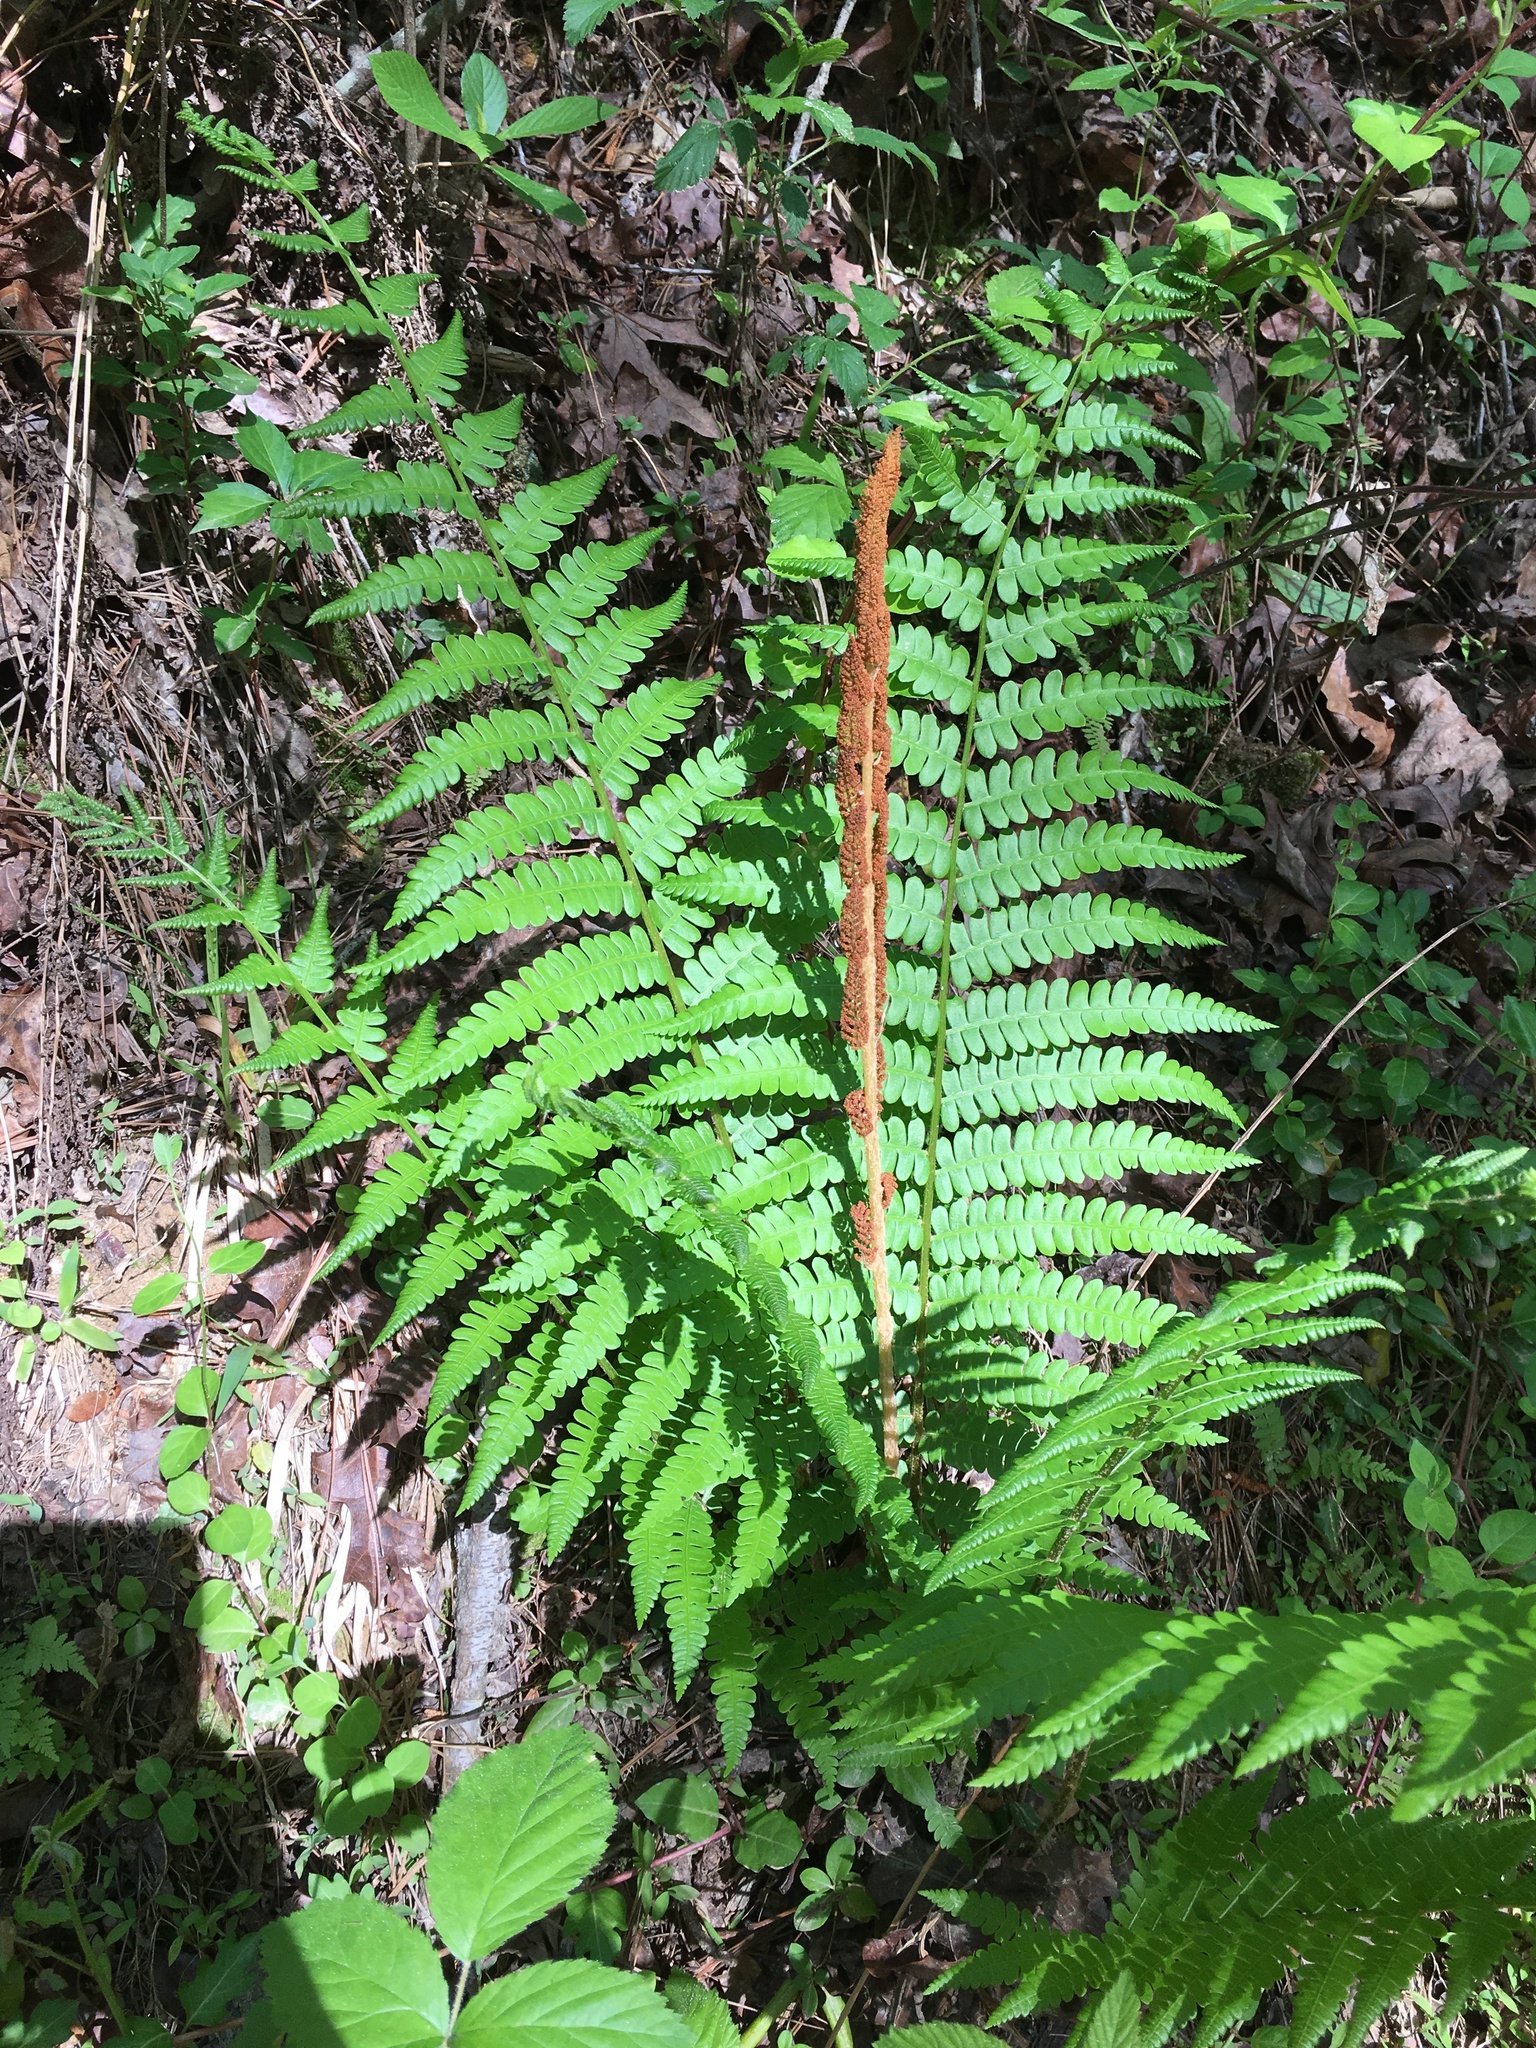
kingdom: Plantae
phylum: Tracheophyta
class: Polypodiopsida
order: Osmundales
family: Osmundaceae
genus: Osmundastrum
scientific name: Osmundastrum cinnamomeum
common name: Cinnamon fern
